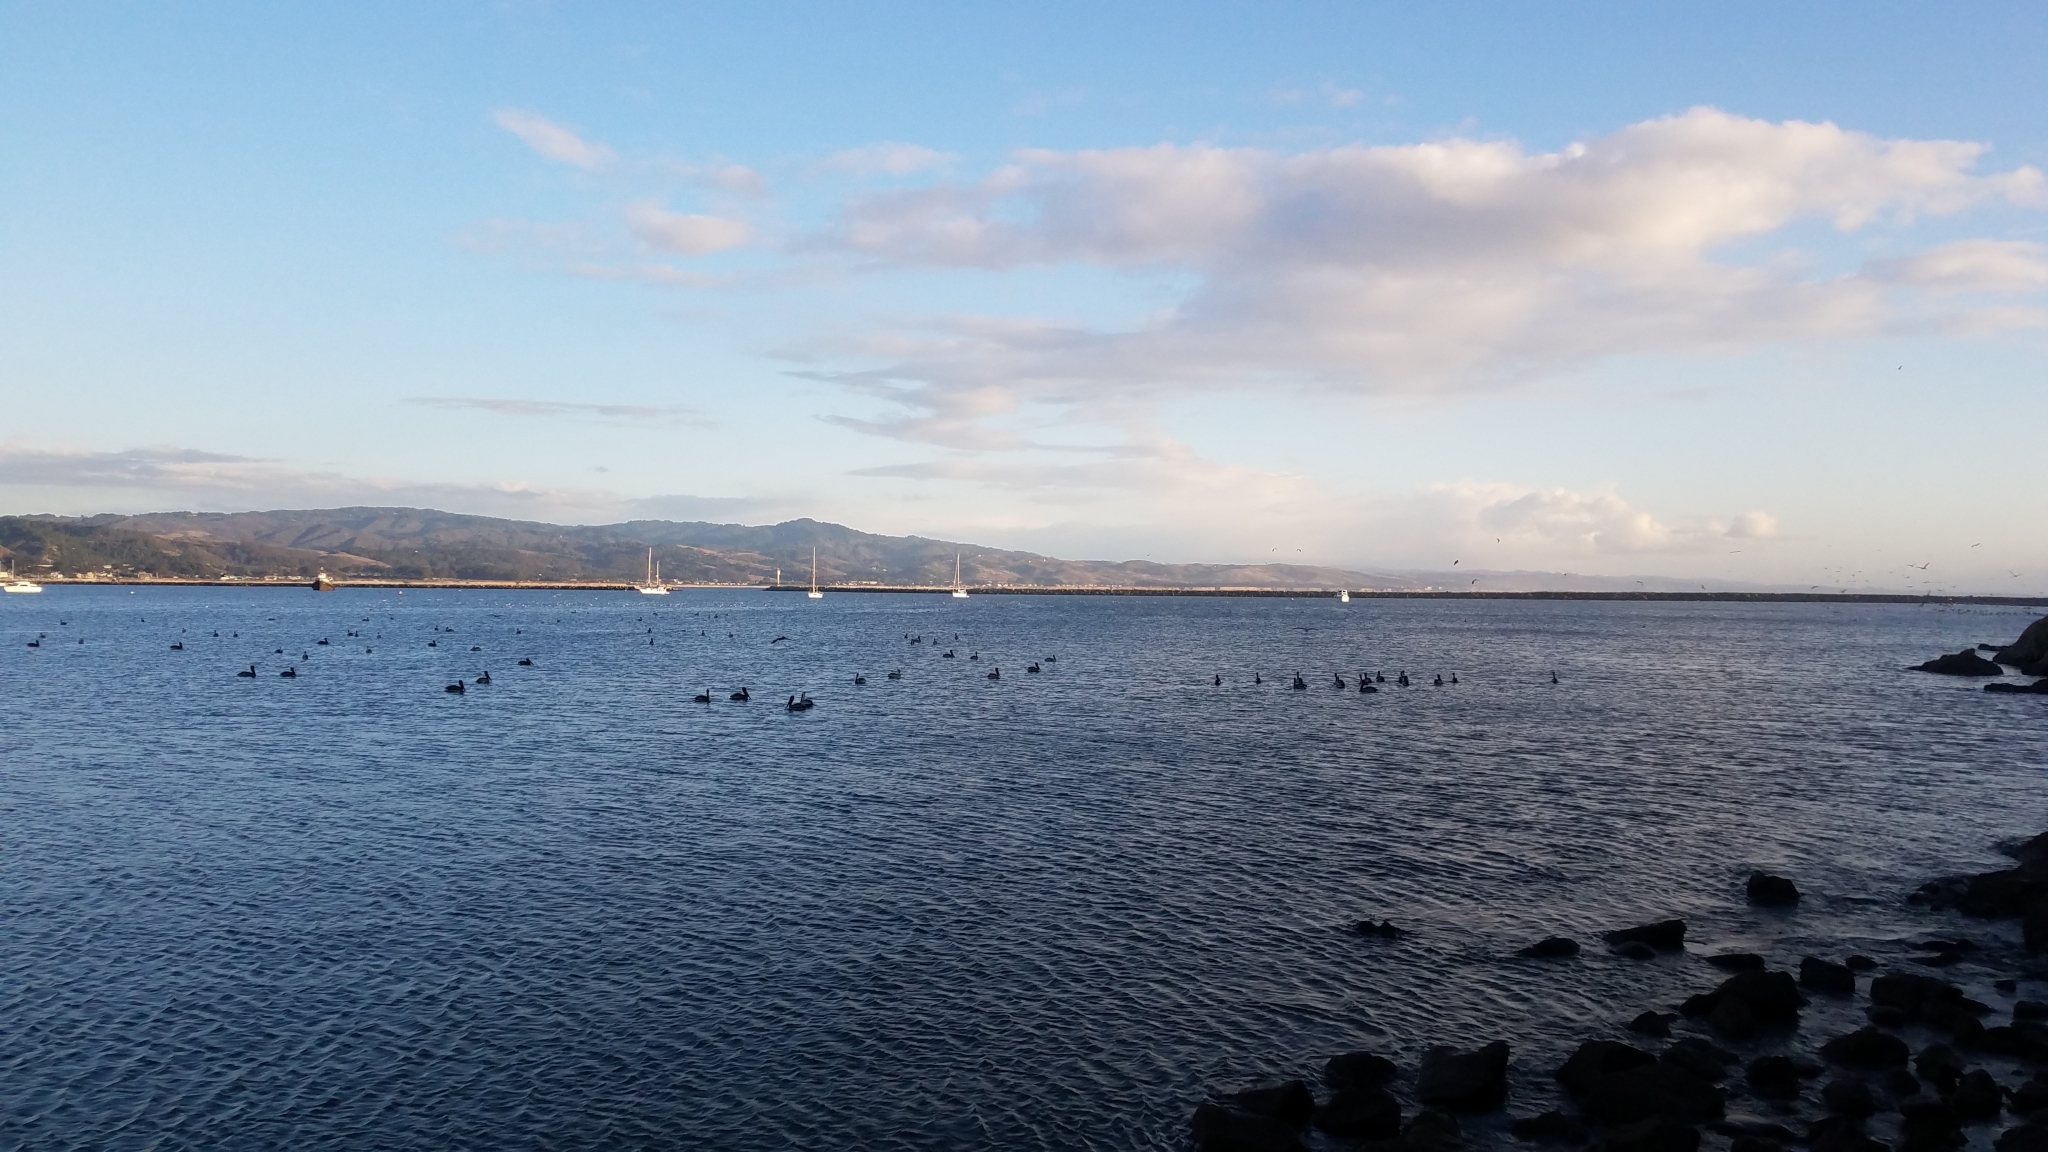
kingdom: Animalia
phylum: Chordata
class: Aves
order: Pelecaniformes
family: Pelecanidae
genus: Pelecanus
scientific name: Pelecanus occidentalis
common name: Brown pelican
